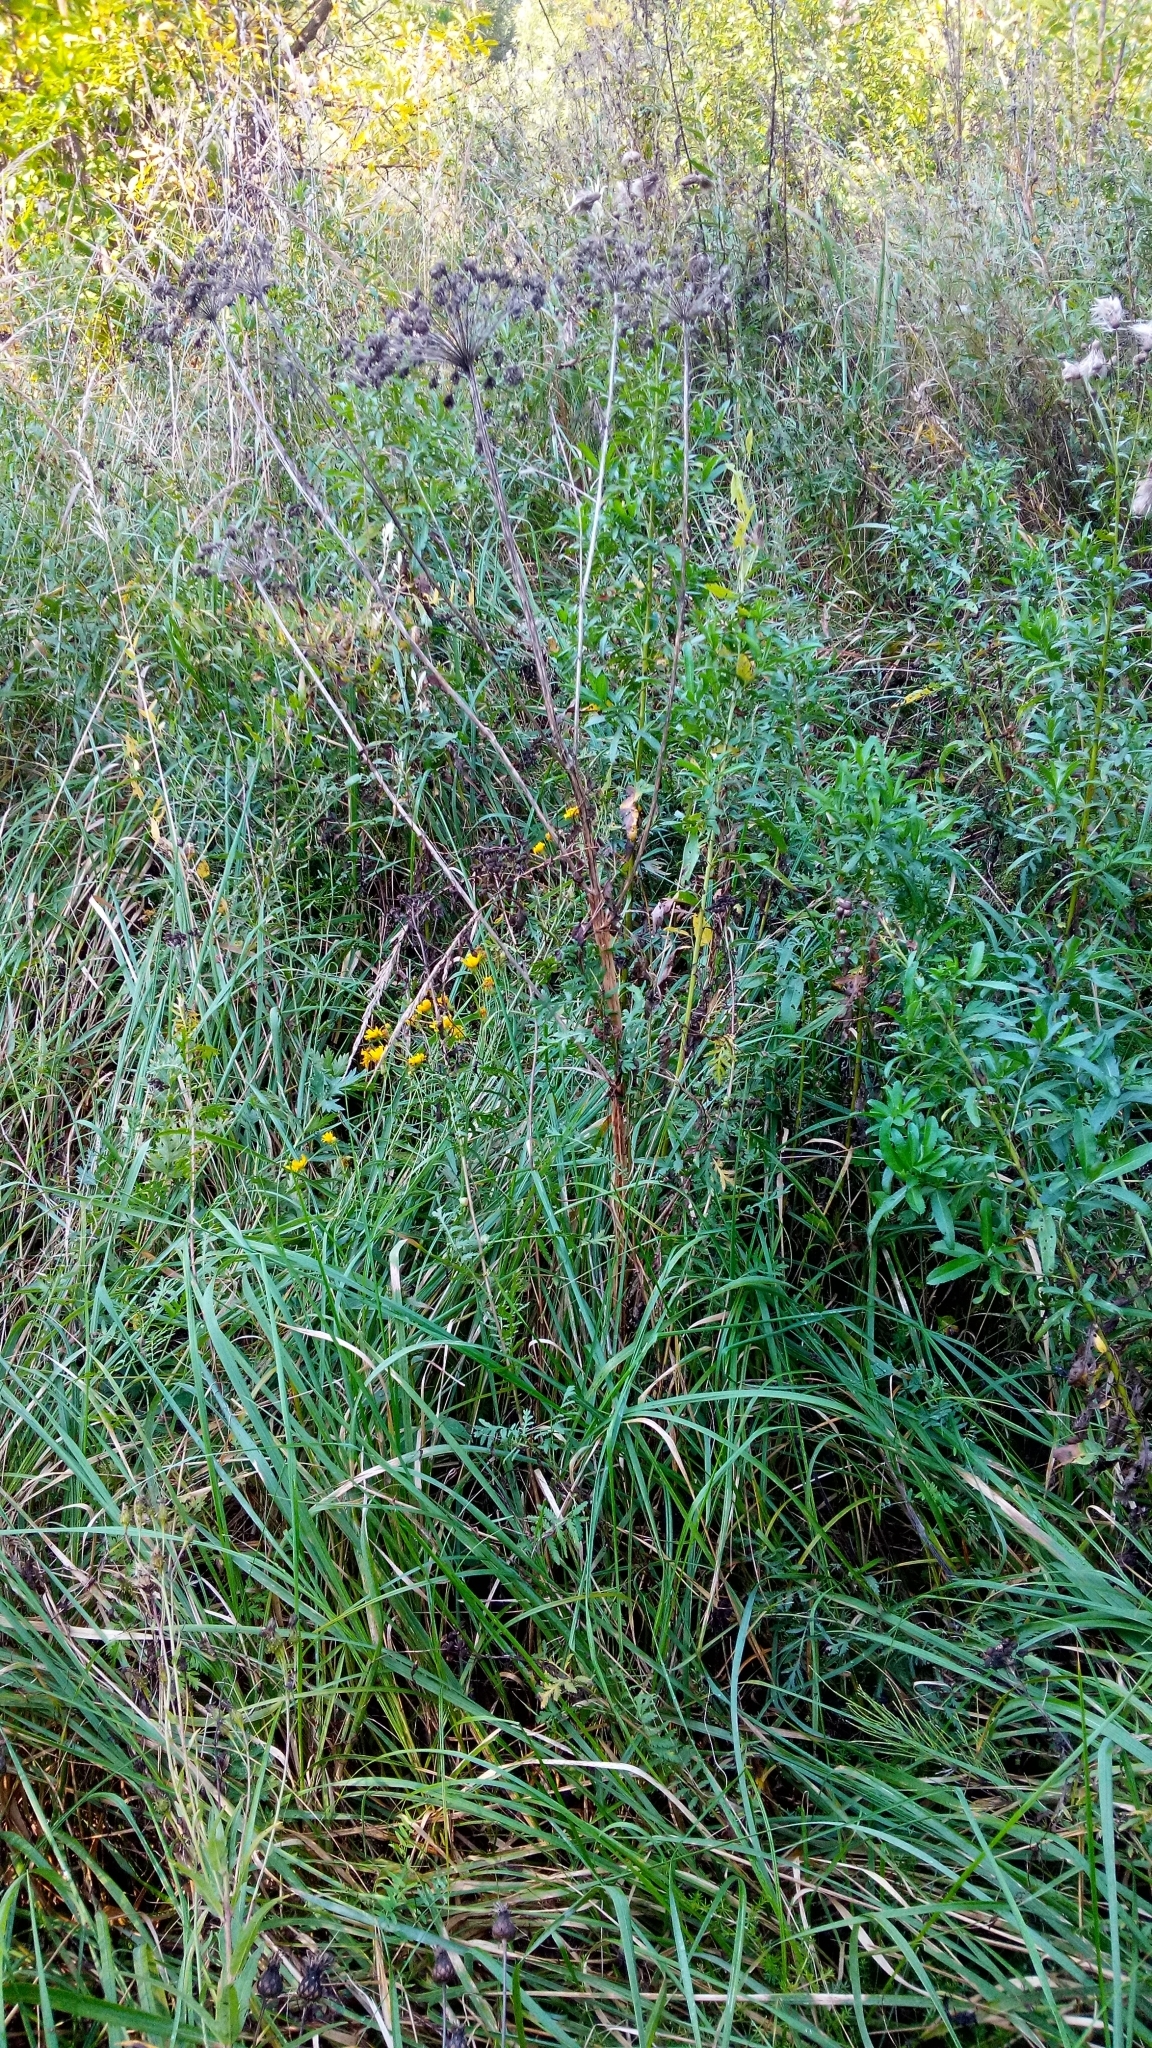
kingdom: Plantae
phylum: Tracheophyta
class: Magnoliopsida
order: Apiales
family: Apiaceae
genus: Seseli
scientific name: Seseli libanotis
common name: Mooncarrot
